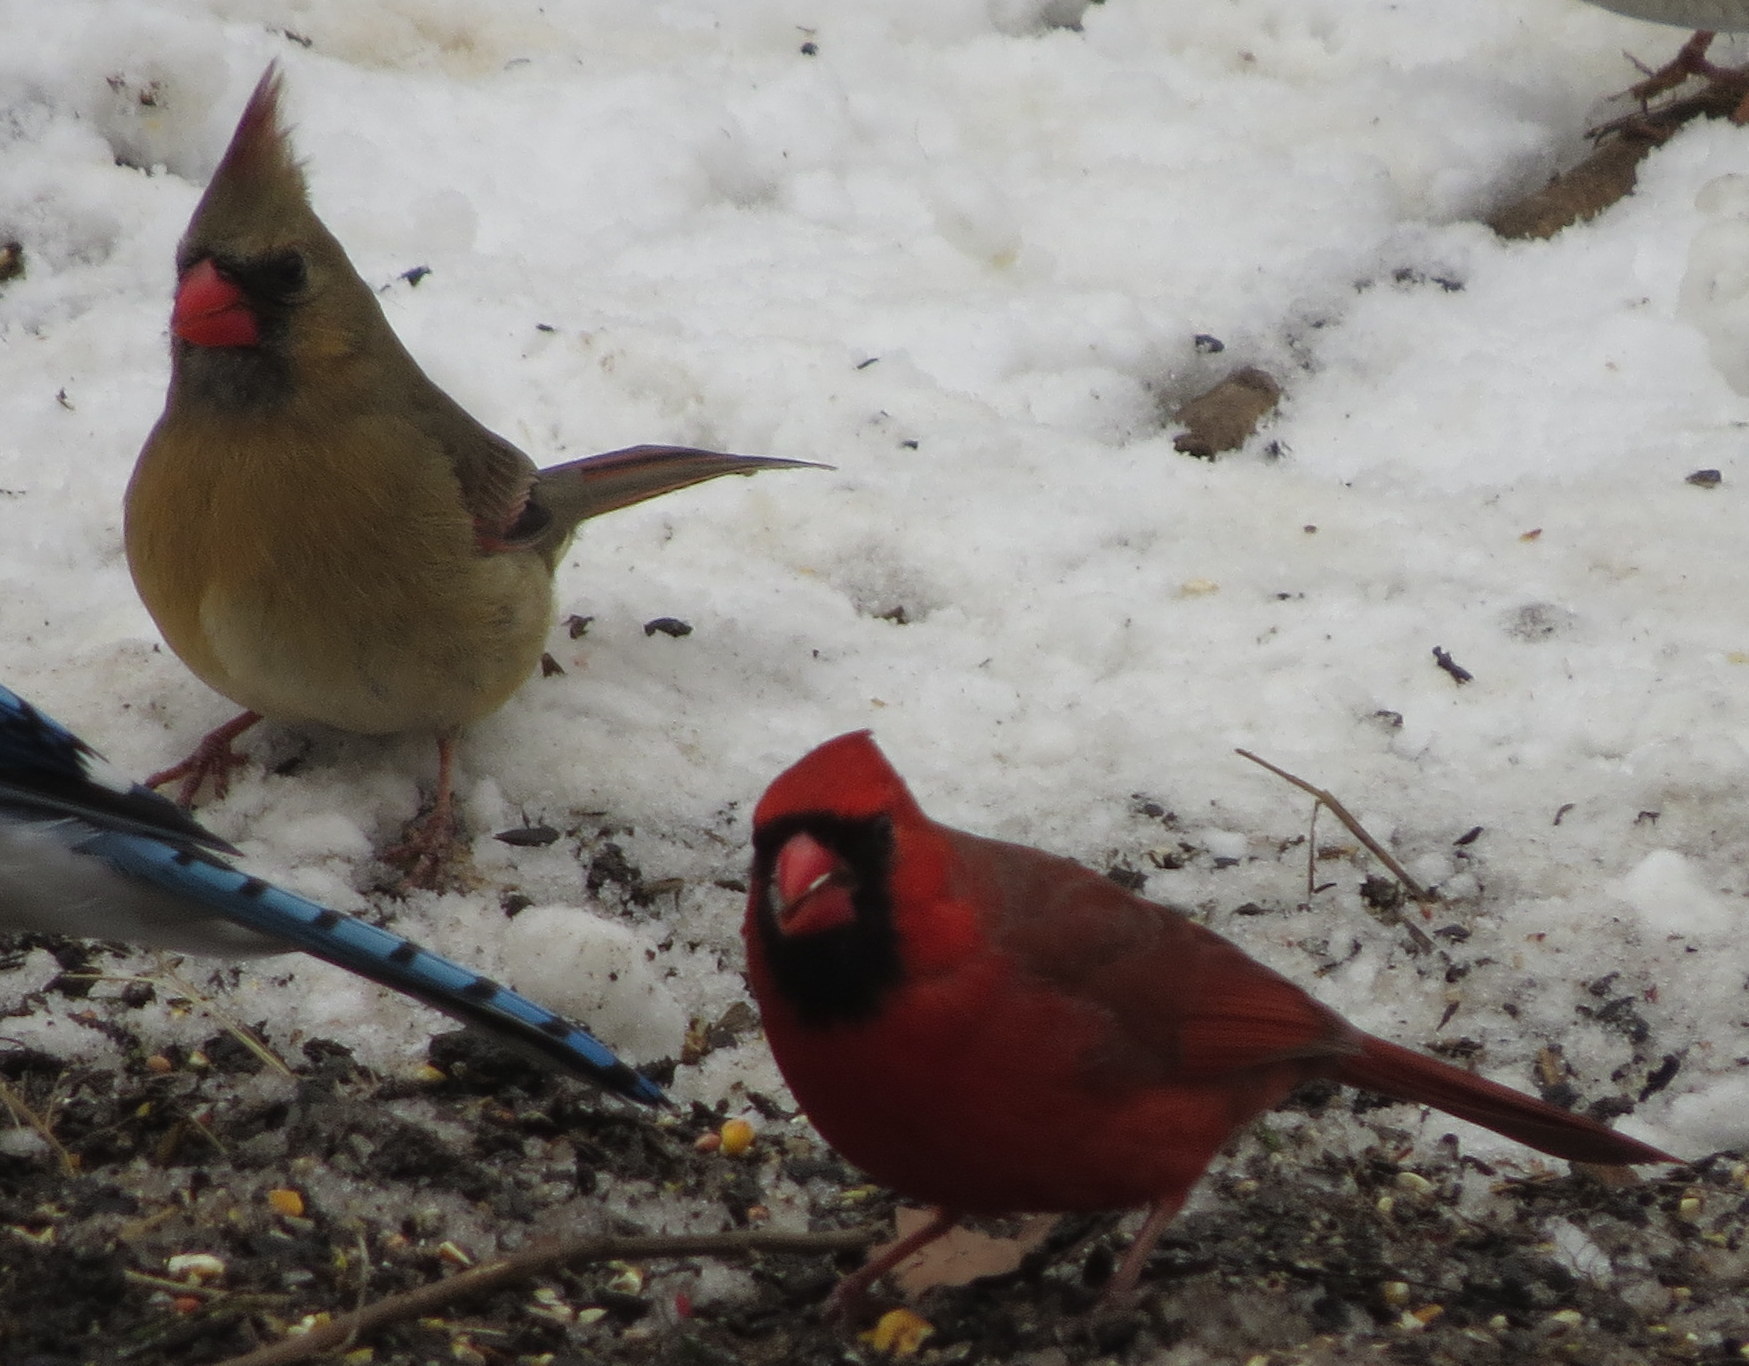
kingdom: Animalia
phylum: Chordata
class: Aves
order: Passeriformes
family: Cardinalidae
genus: Cardinalis
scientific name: Cardinalis cardinalis
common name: Northern cardinal
